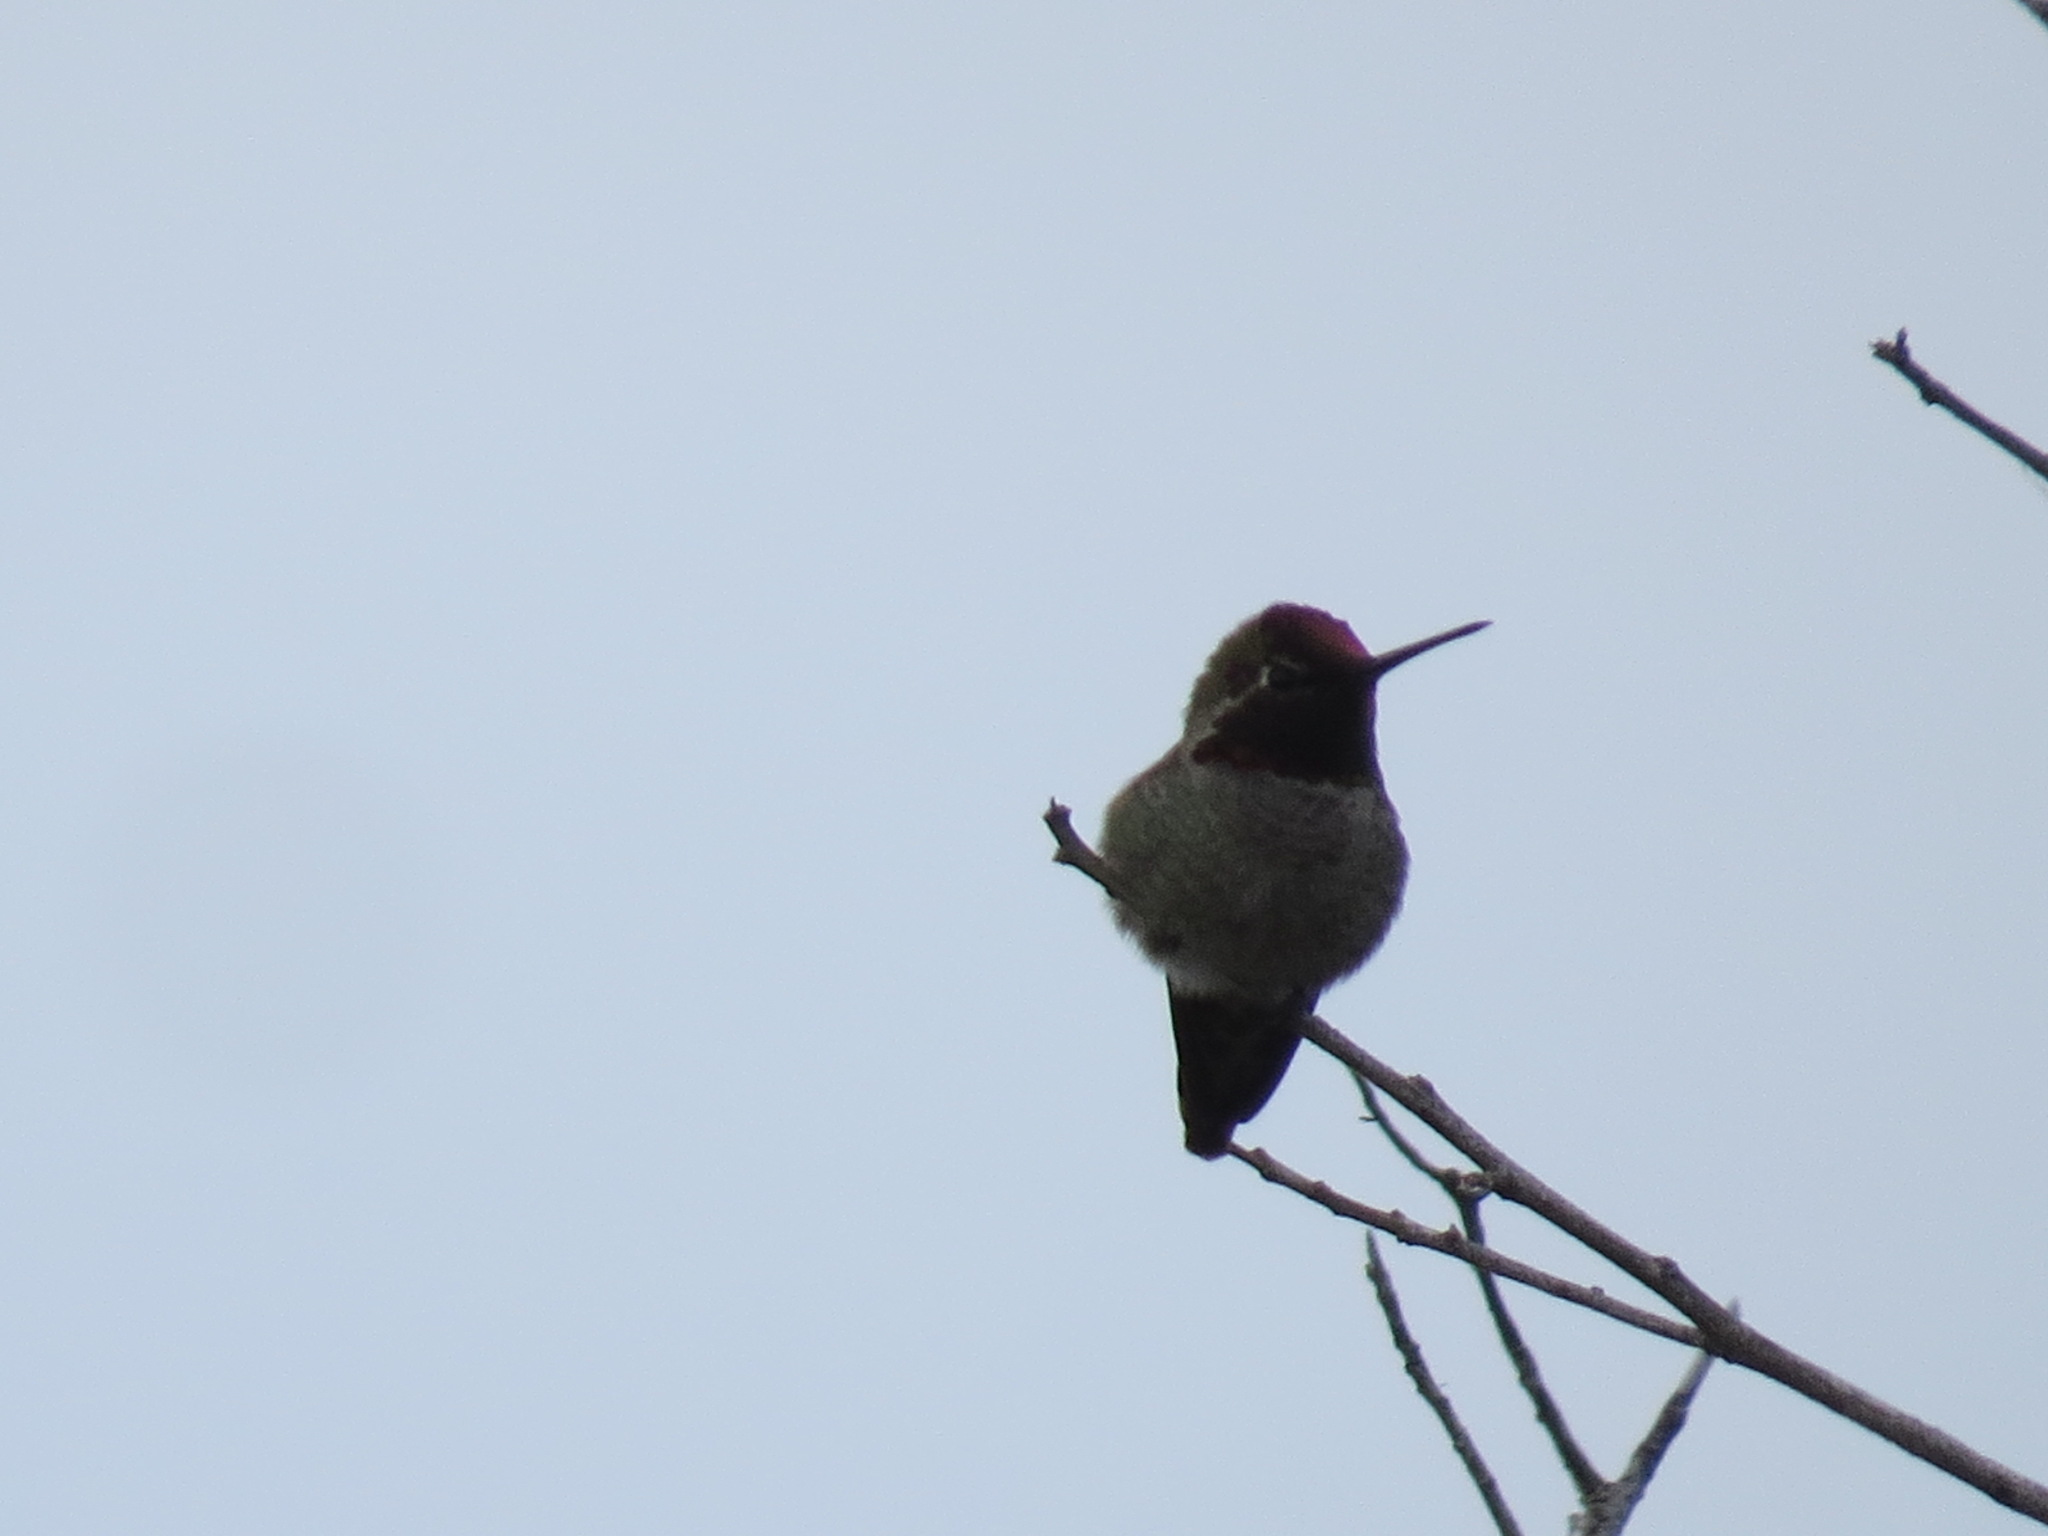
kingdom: Animalia
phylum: Chordata
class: Aves
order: Apodiformes
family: Trochilidae
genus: Calypte
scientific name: Calypte anna
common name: Anna's hummingbird
